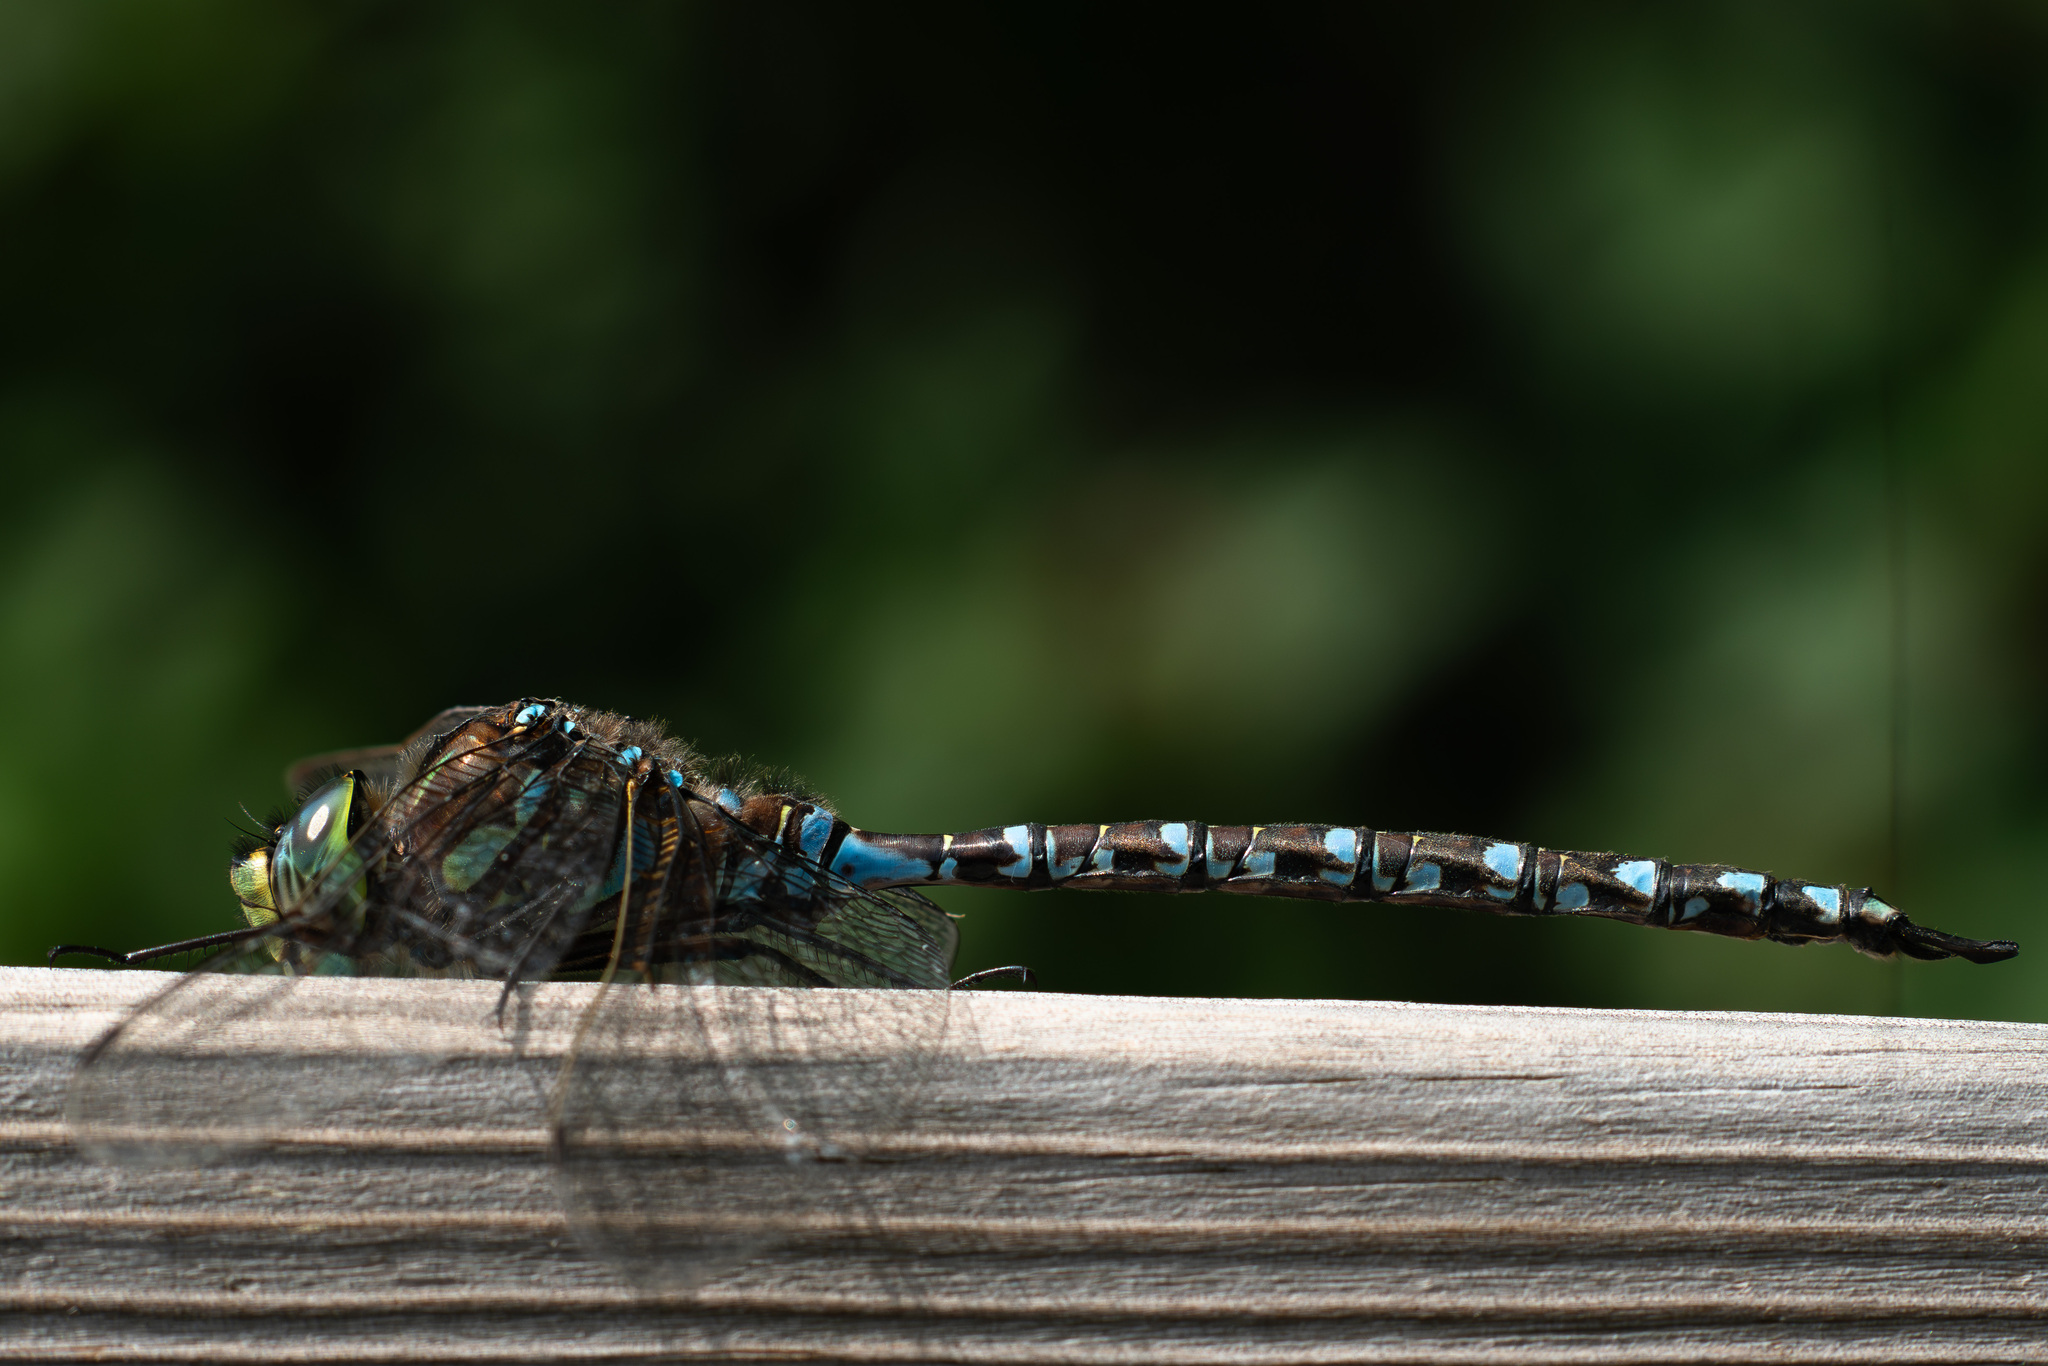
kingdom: Animalia
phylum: Arthropoda
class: Insecta
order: Odonata
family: Aeshnidae
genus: Aeshna
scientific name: Aeshna eremita
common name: Lake darner
